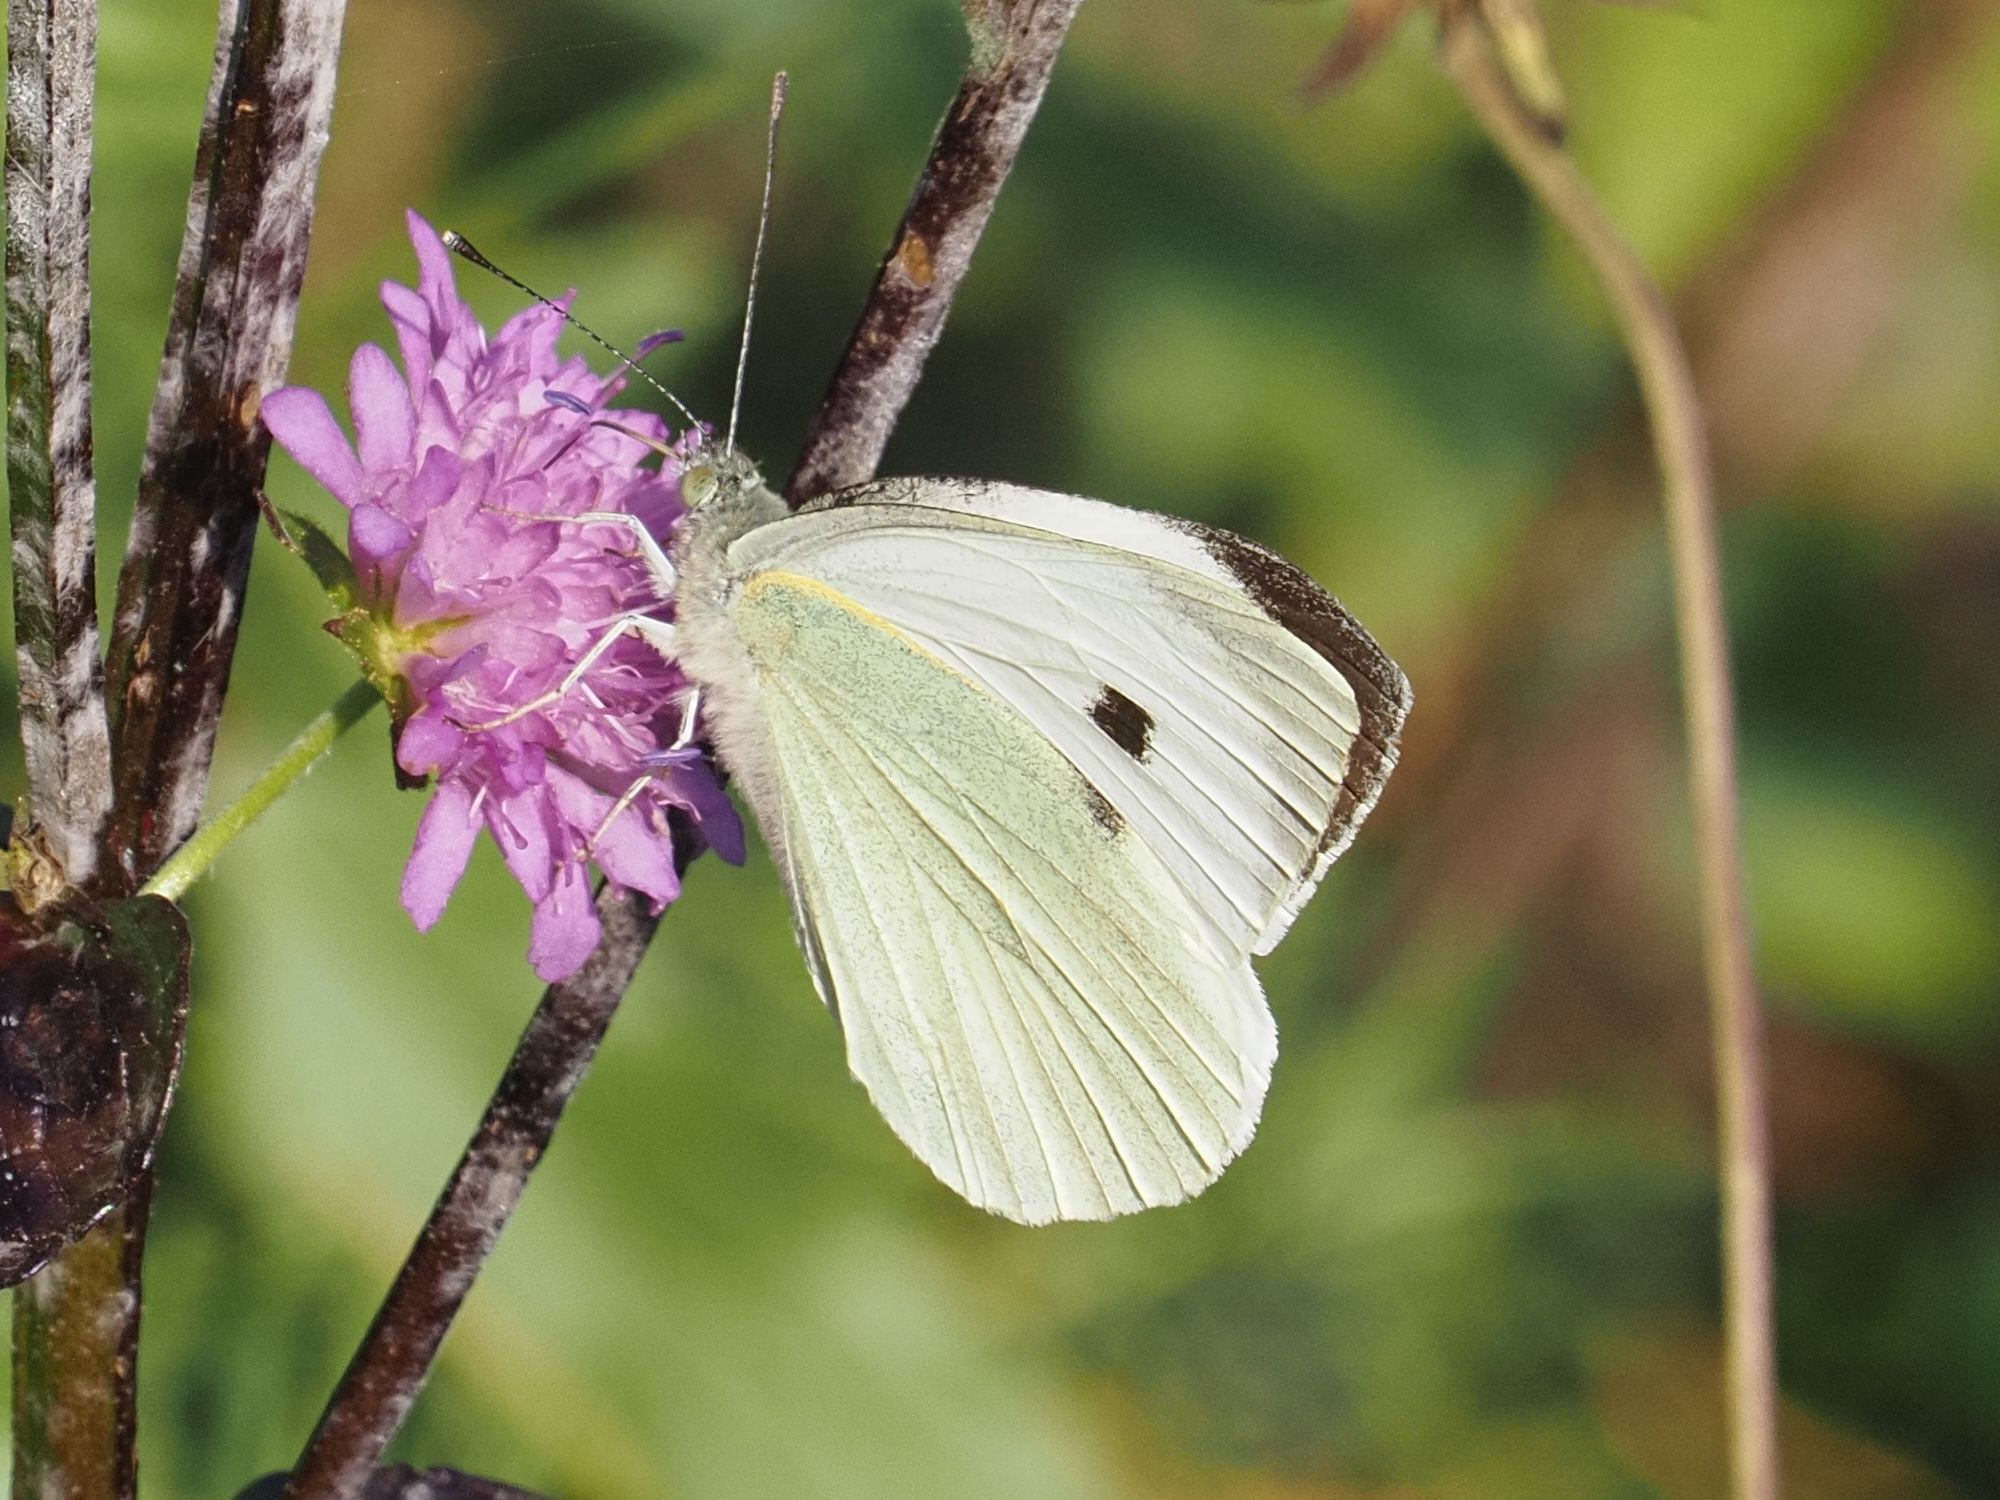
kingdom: Animalia
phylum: Arthropoda
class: Insecta
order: Lepidoptera
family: Pieridae
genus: Pieris
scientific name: Pieris brassicae
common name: Large white
